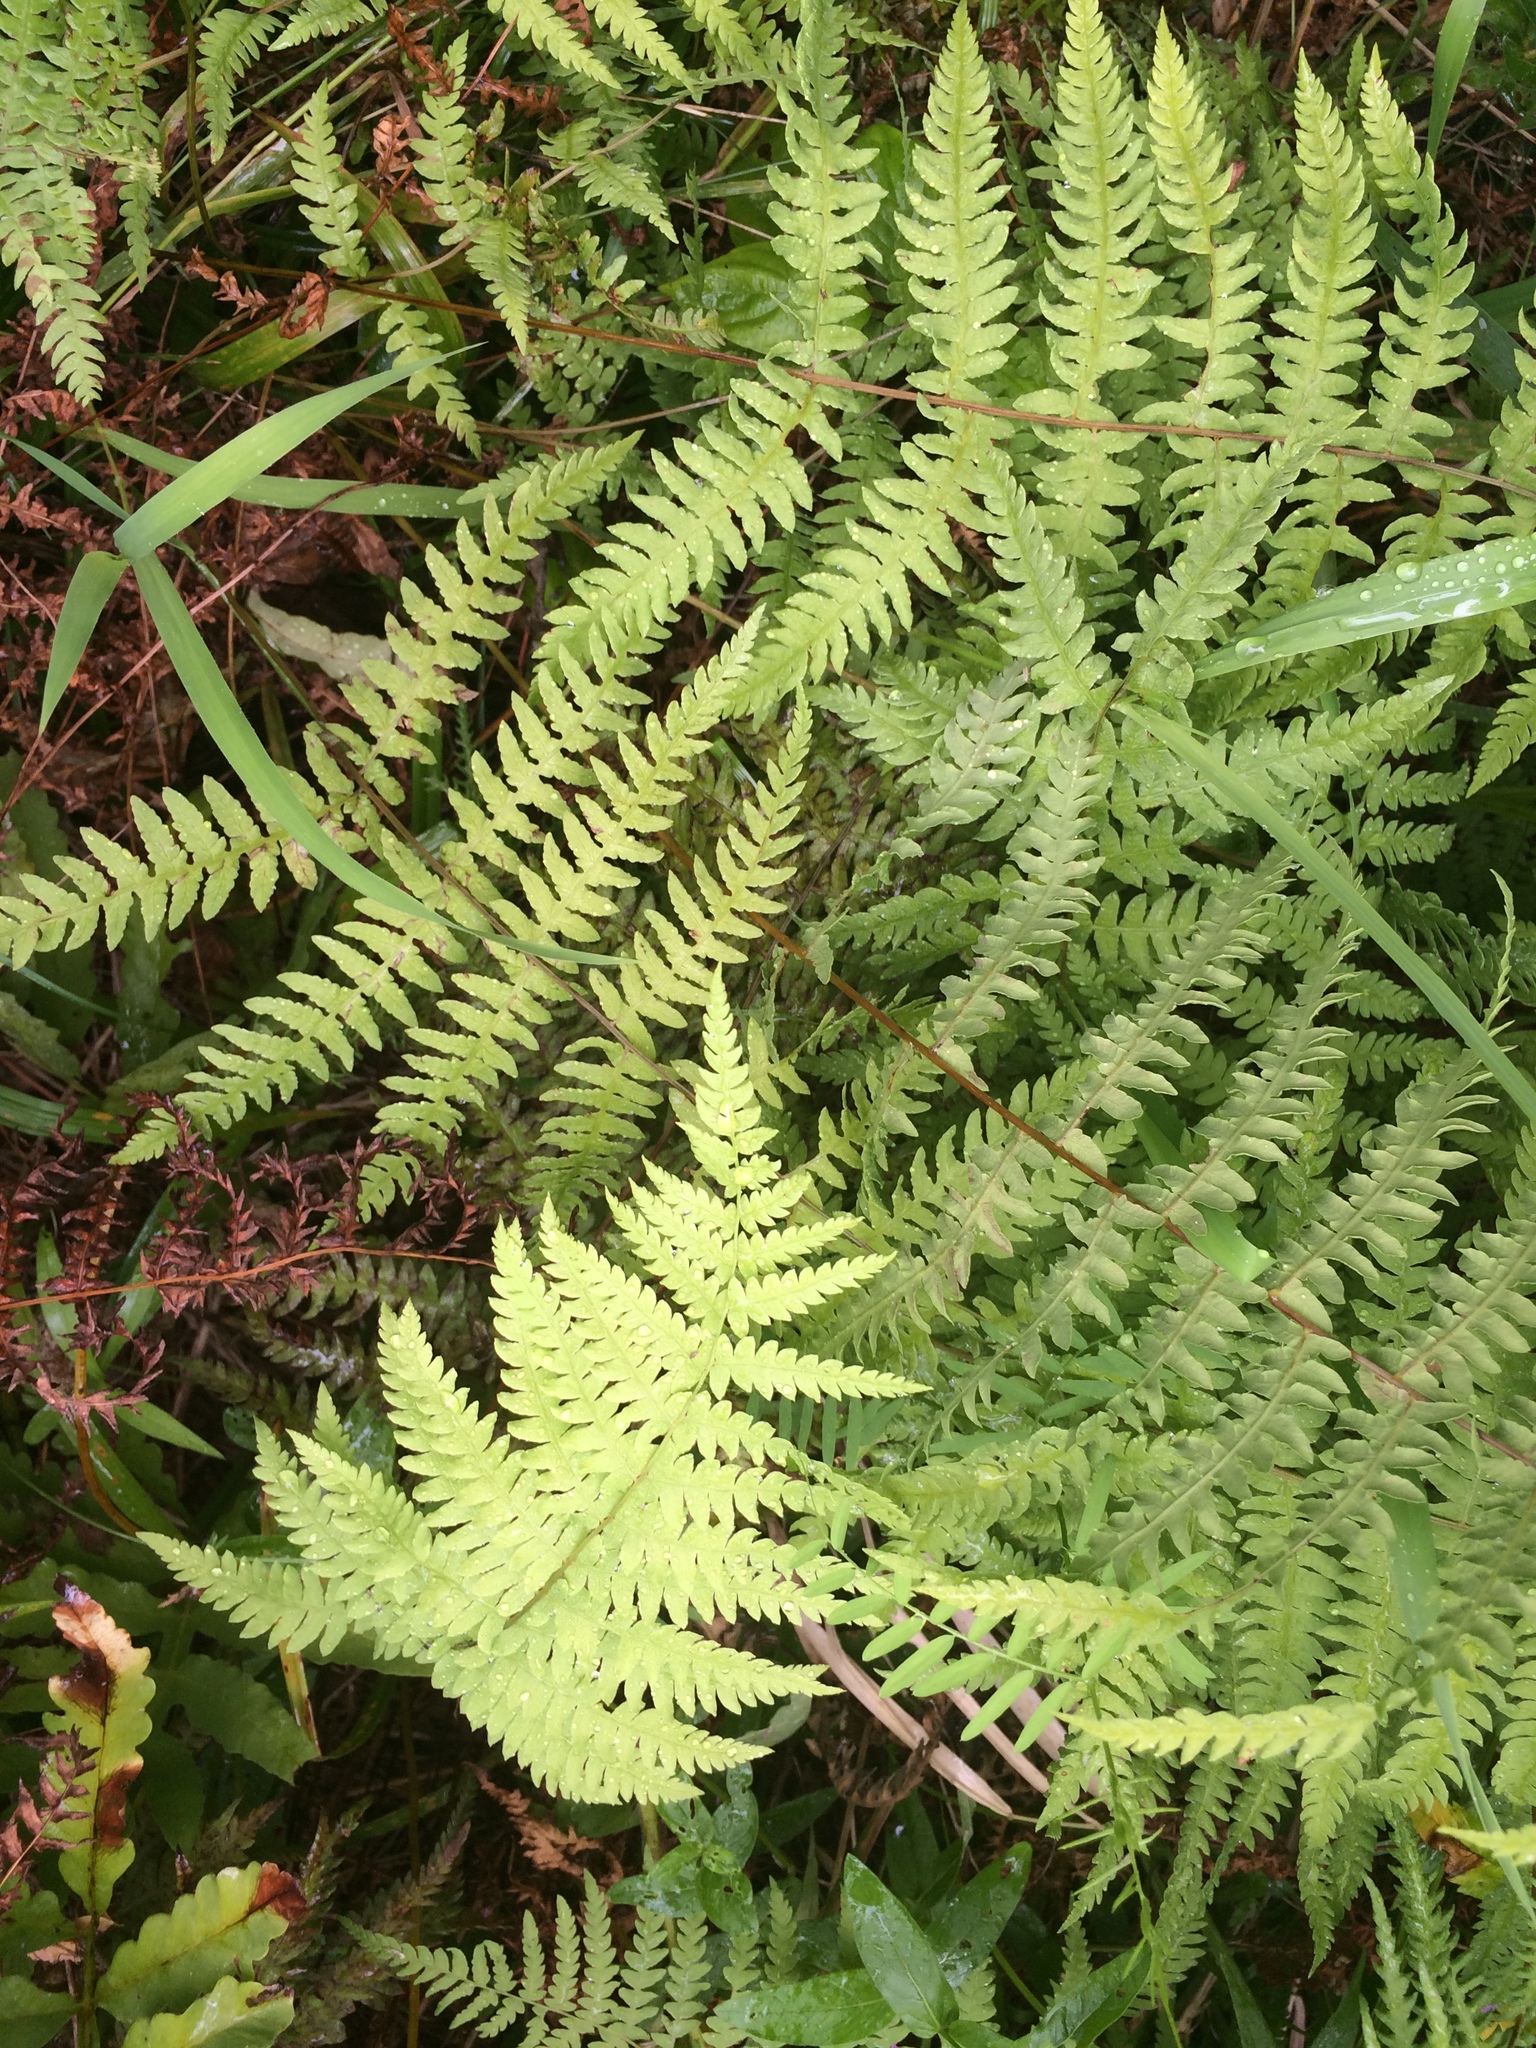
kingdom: Plantae
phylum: Tracheophyta
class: Polypodiopsida
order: Polypodiales
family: Thelypteridaceae
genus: Thelypteris
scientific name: Thelypteris palustris
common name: Marsh fern
